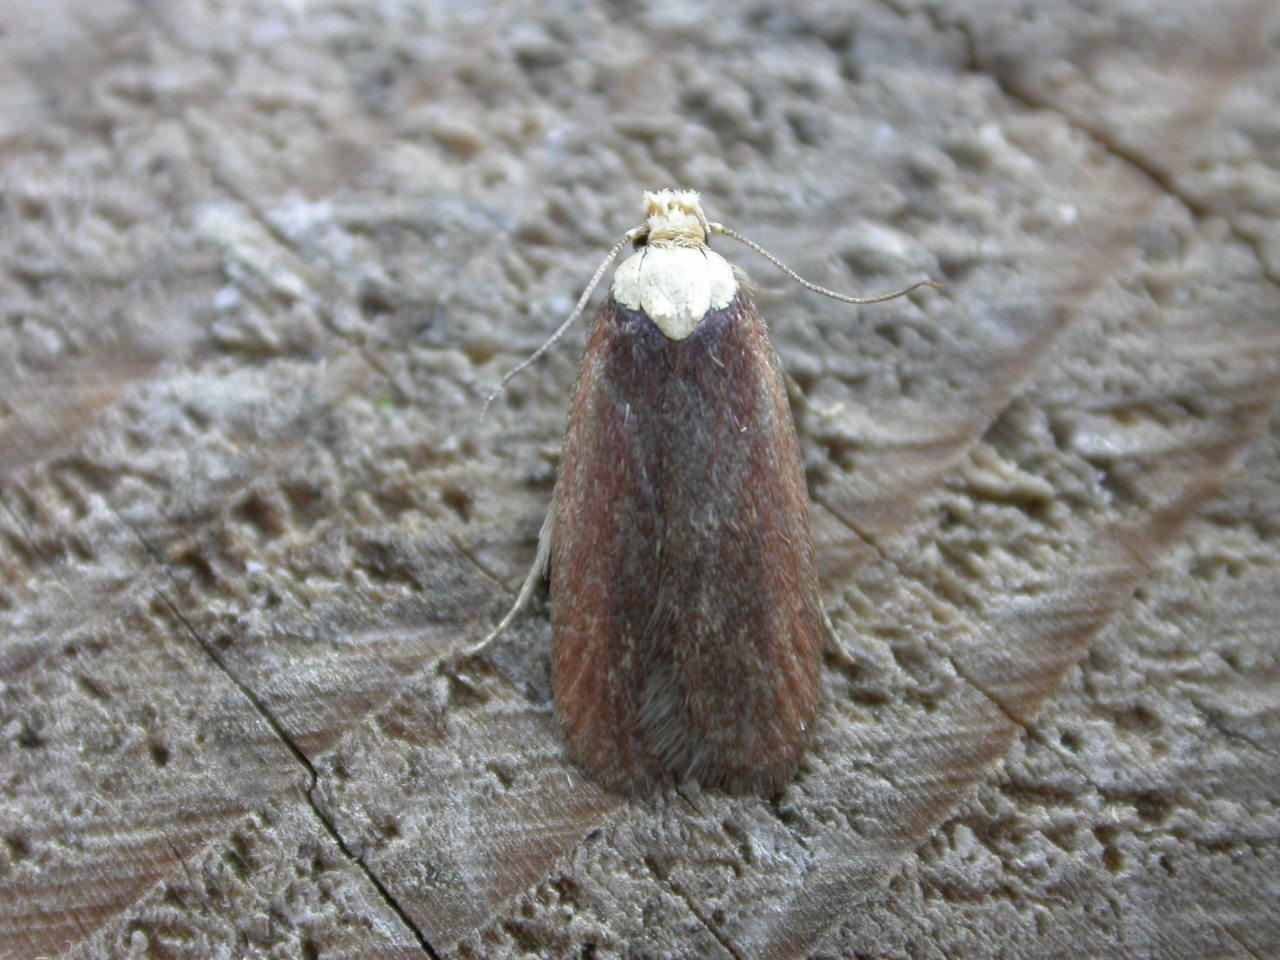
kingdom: Animalia
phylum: Arthropoda
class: Insecta
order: Lepidoptera
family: Depressariidae
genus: Depressaria
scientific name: Depressaria depressana
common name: Lost flat-body
